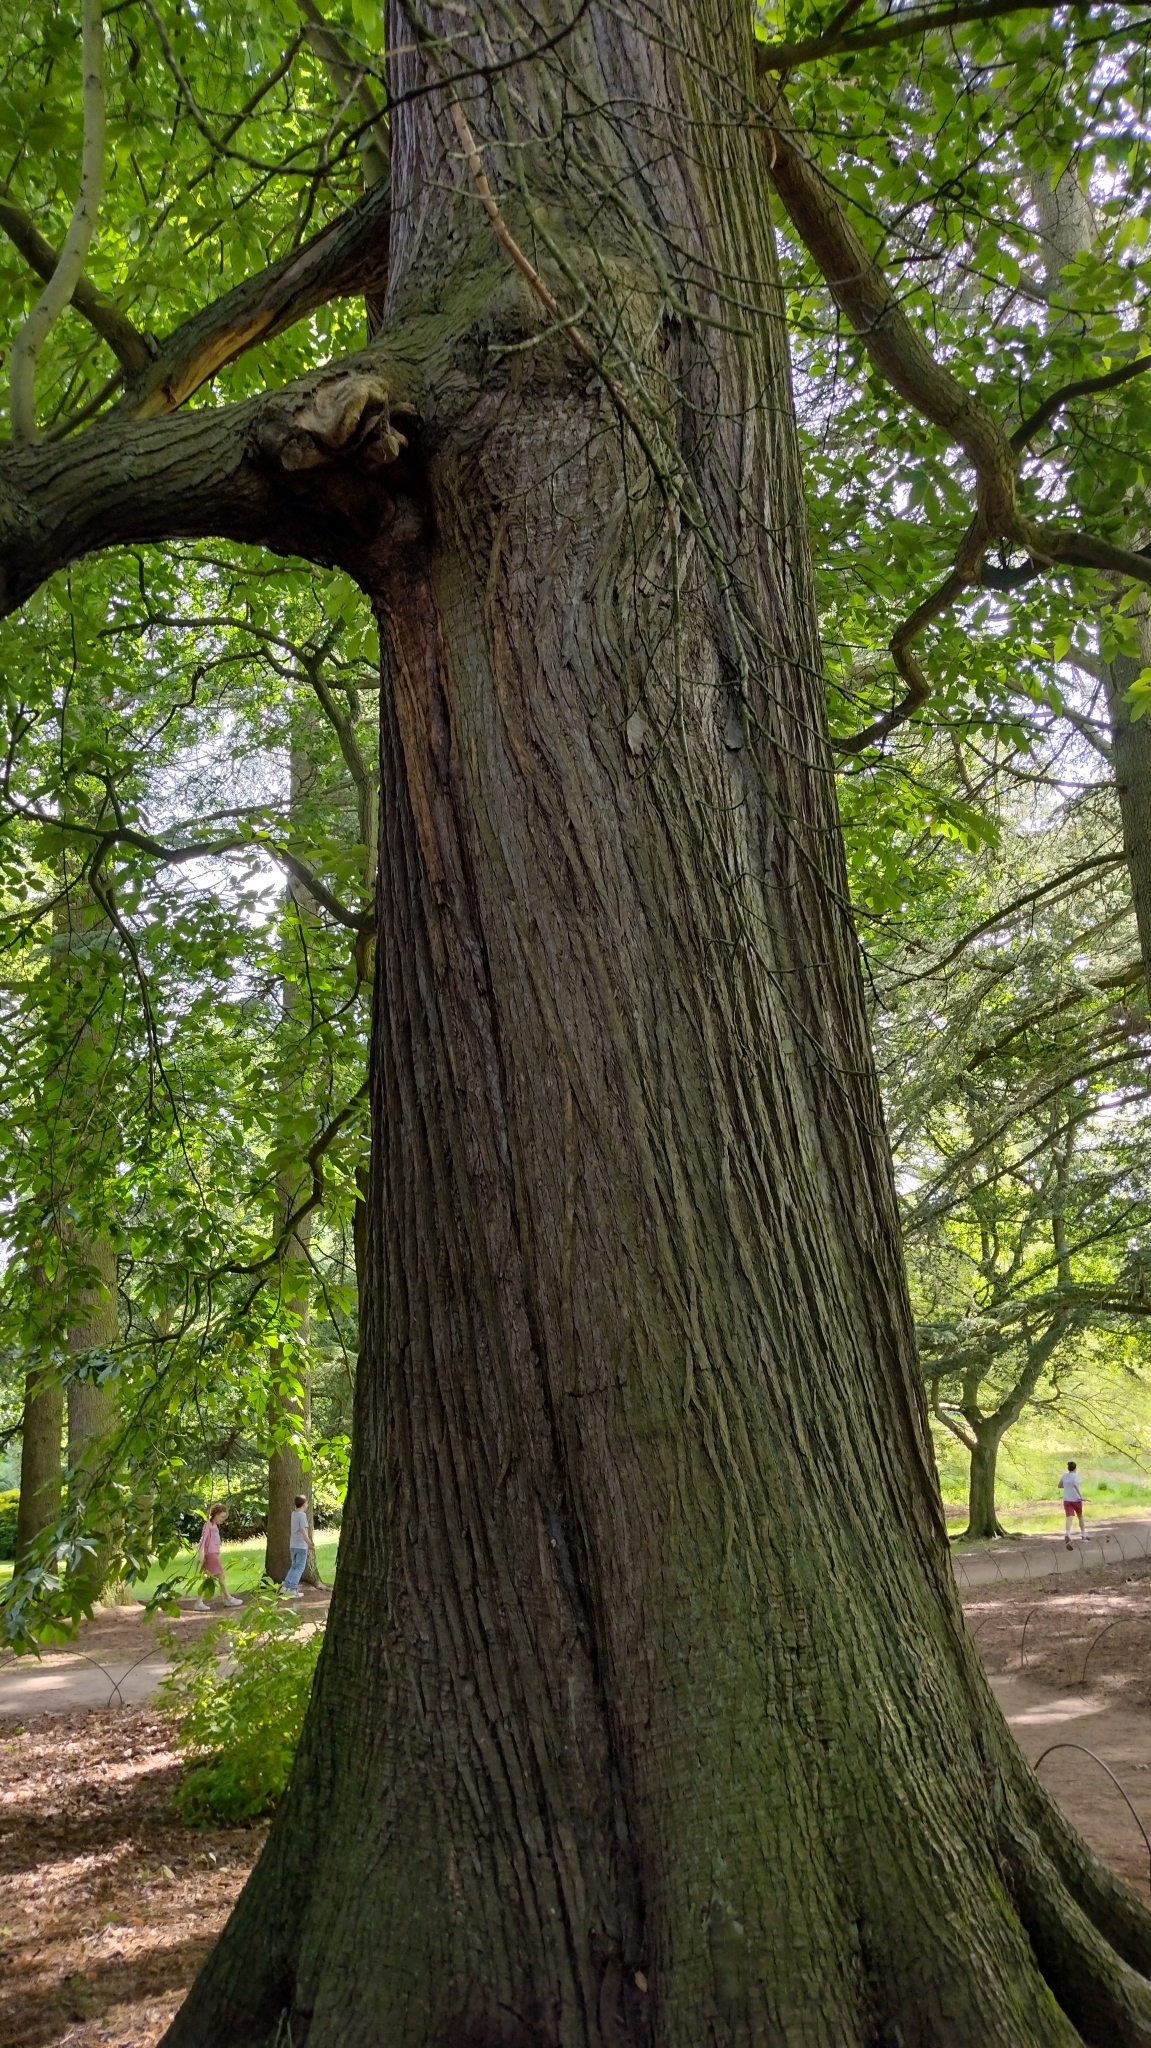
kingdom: Plantae
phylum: Tracheophyta
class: Magnoliopsida
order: Fagales
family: Fagaceae
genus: Castanea
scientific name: Castanea sativa
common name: Sweet chestnut
